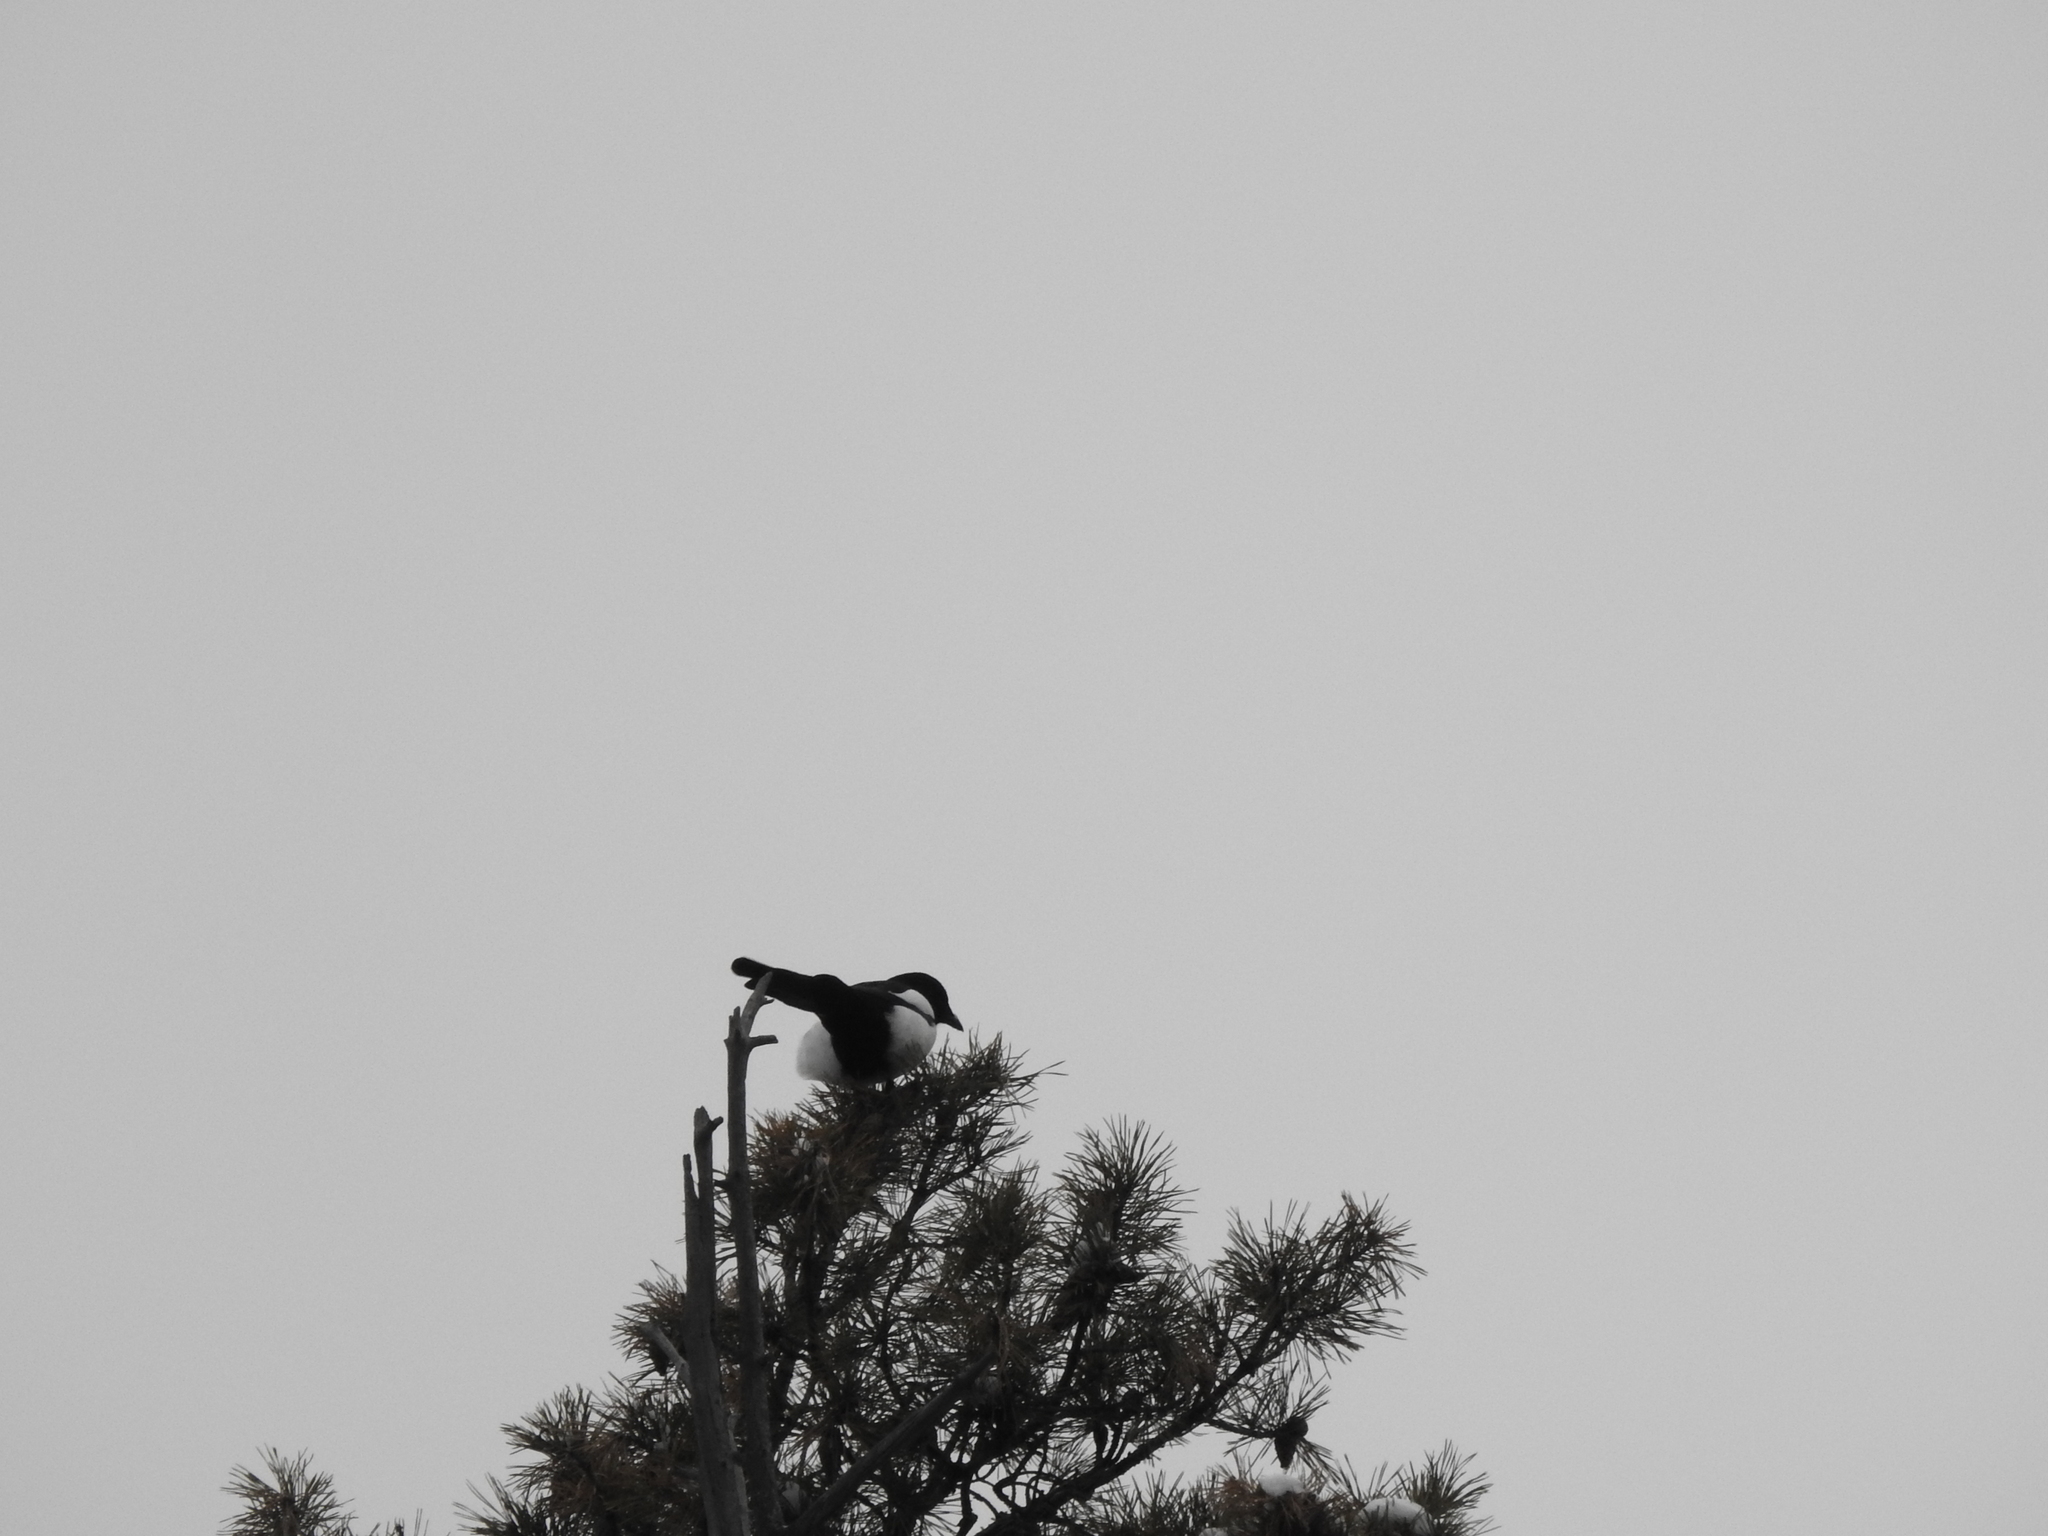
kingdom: Animalia
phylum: Chordata
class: Aves
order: Passeriformes
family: Corvidae
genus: Pica
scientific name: Pica pica
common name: Eurasian magpie
